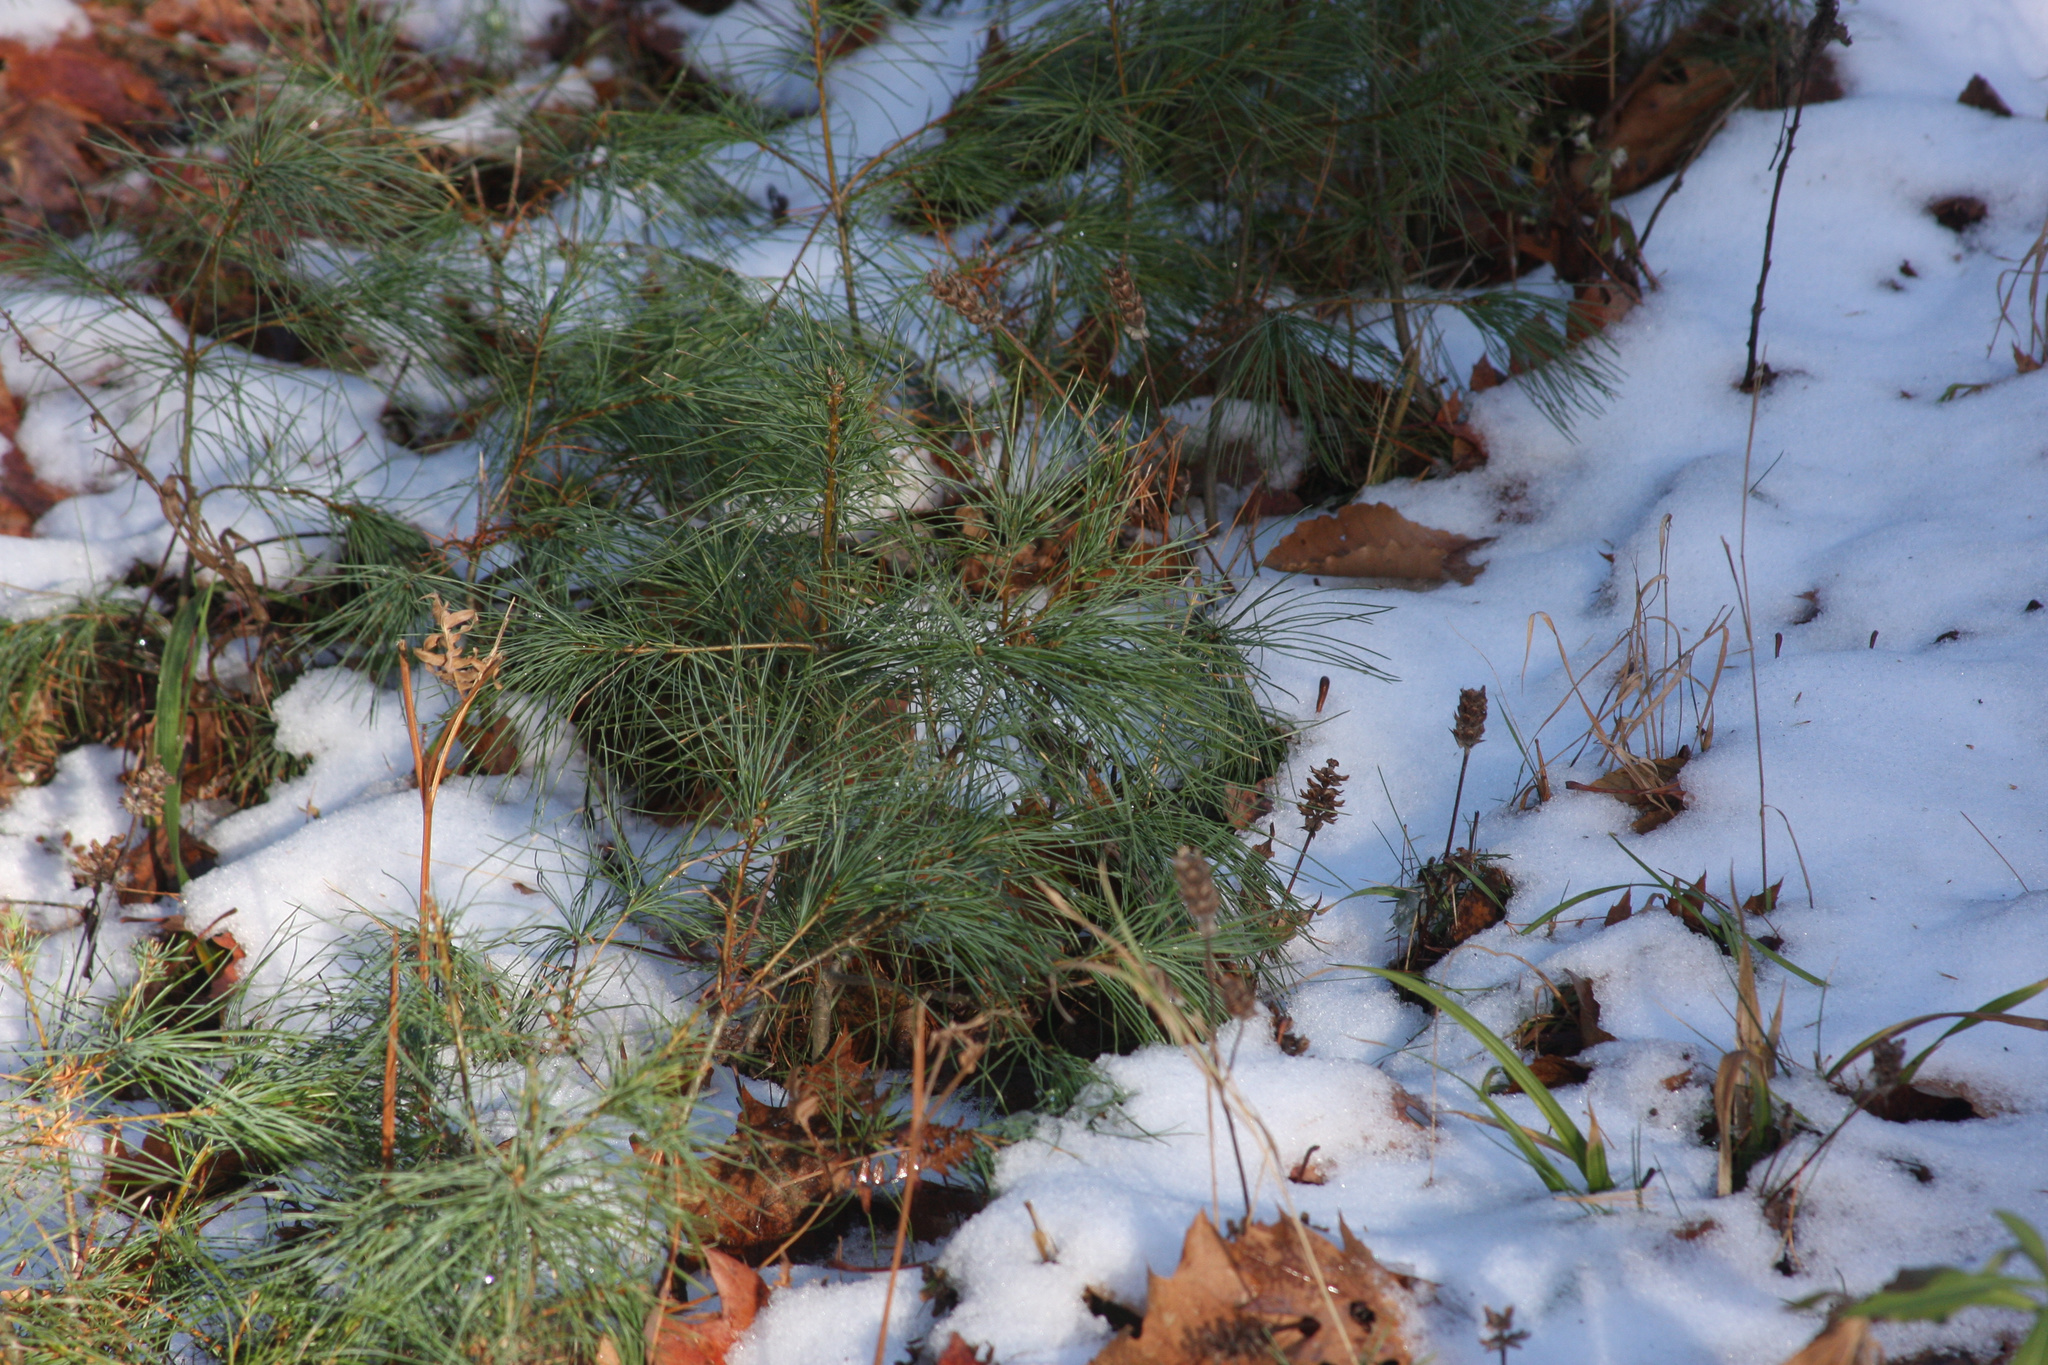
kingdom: Plantae
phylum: Tracheophyta
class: Pinopsida
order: Pinales
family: Pinaceae
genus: Pinus
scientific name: Pinus strobus
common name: Weymouth pine
